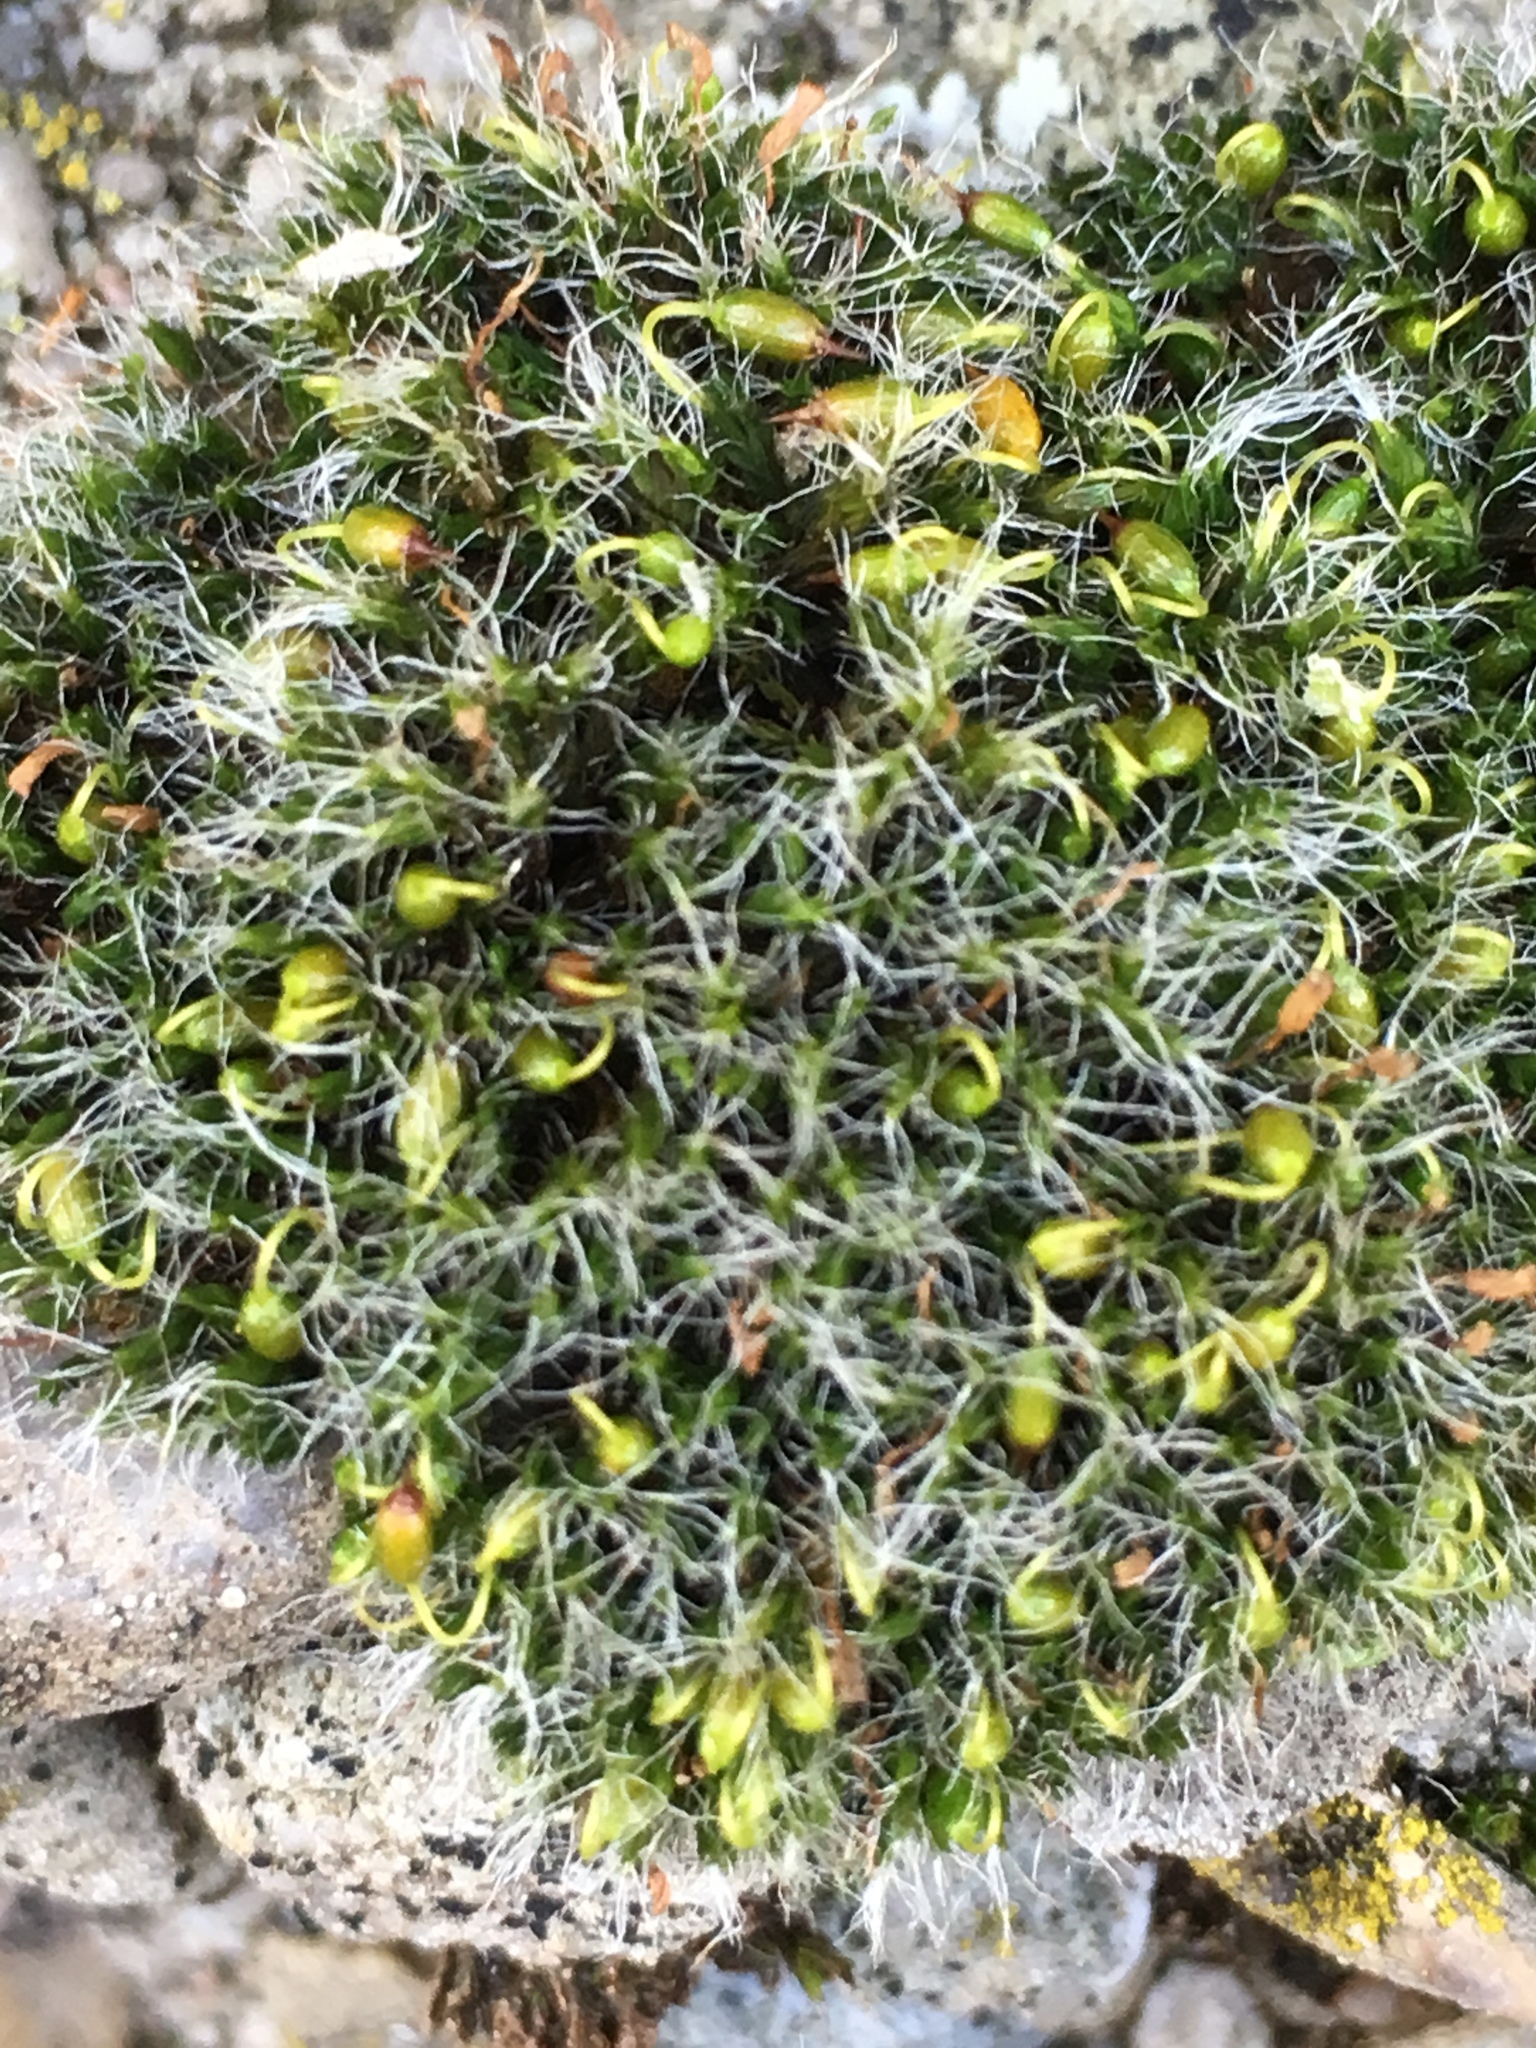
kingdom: Plantae
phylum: Bryophyta
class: Bryopsida
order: Grimmiales
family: Grimmiaceae
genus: Grimmia
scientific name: Grimmia pulvinata
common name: Grey-cushioned grimmia
